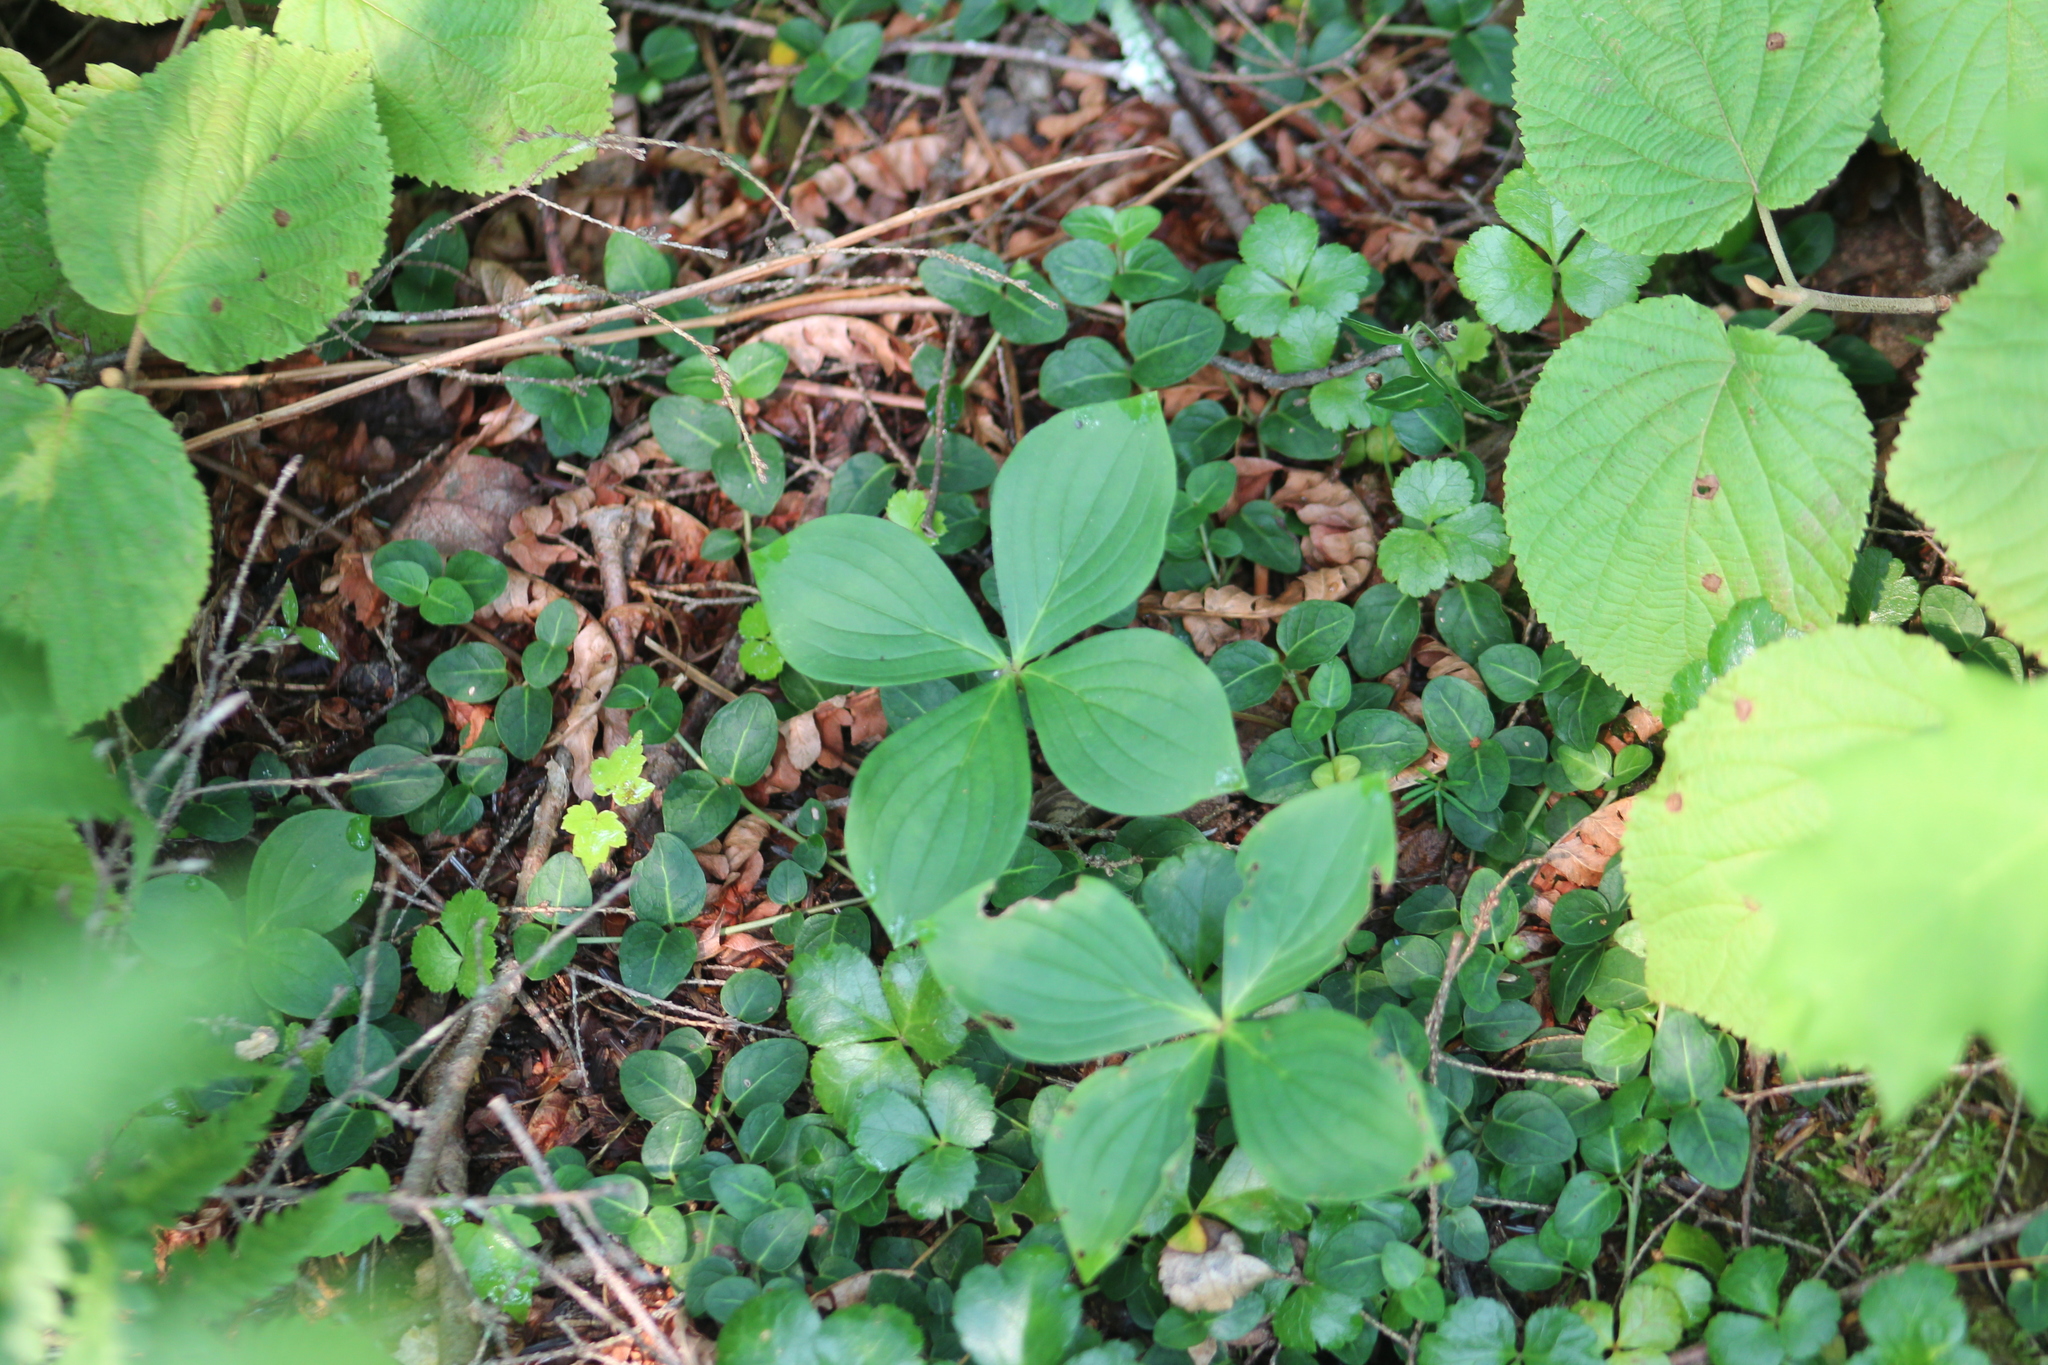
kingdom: Plantae
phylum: Tracheophyta
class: Magnoliopsida
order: Gentianales
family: Rubiaceae
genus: Mitchella
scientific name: Mitchella repens
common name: Partridge-berry
